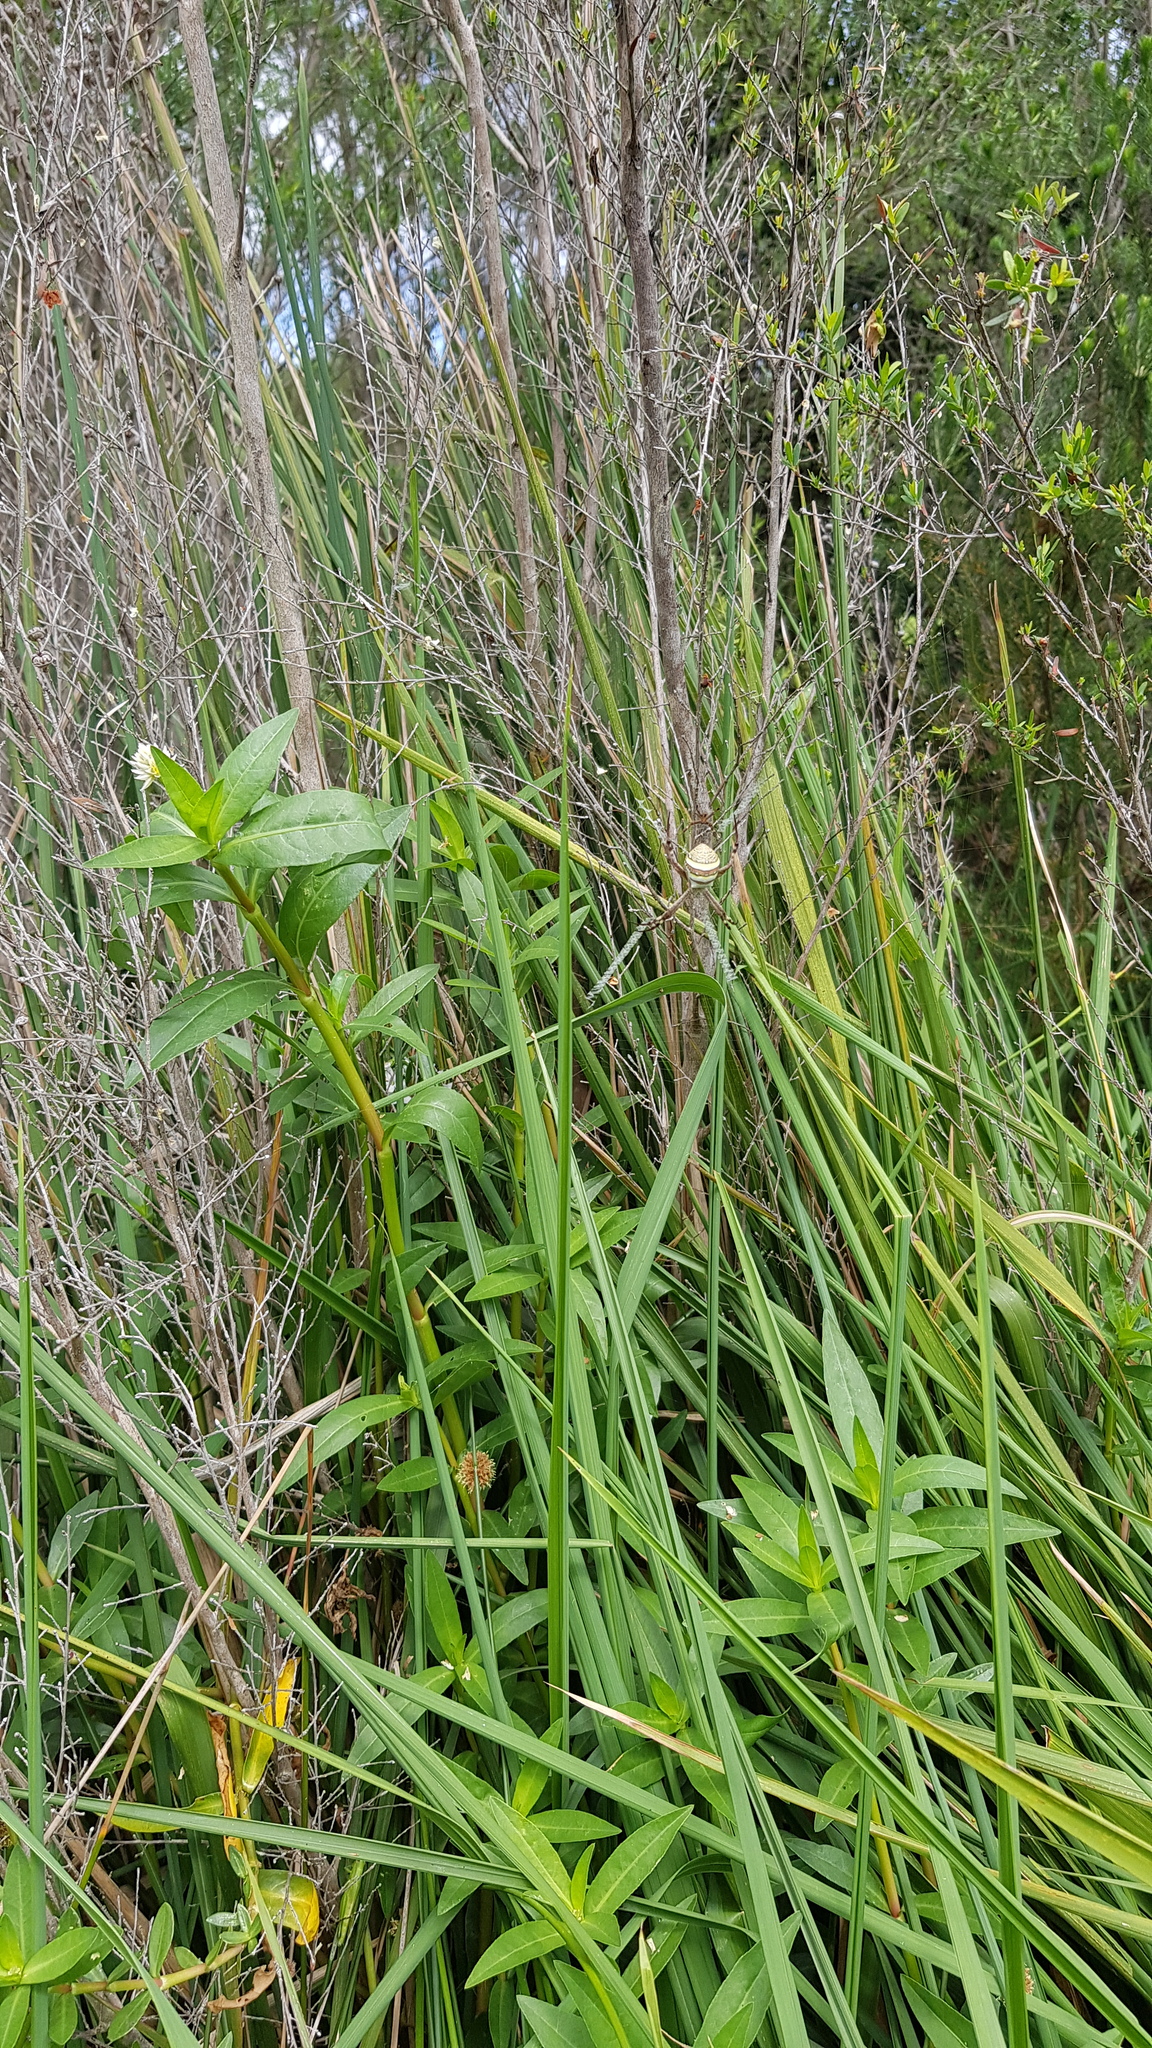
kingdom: Animalia
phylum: Arthropoda
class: Arachnida
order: Araneae
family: Araneidae
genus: Argiope
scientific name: Argiope keyserlingi
